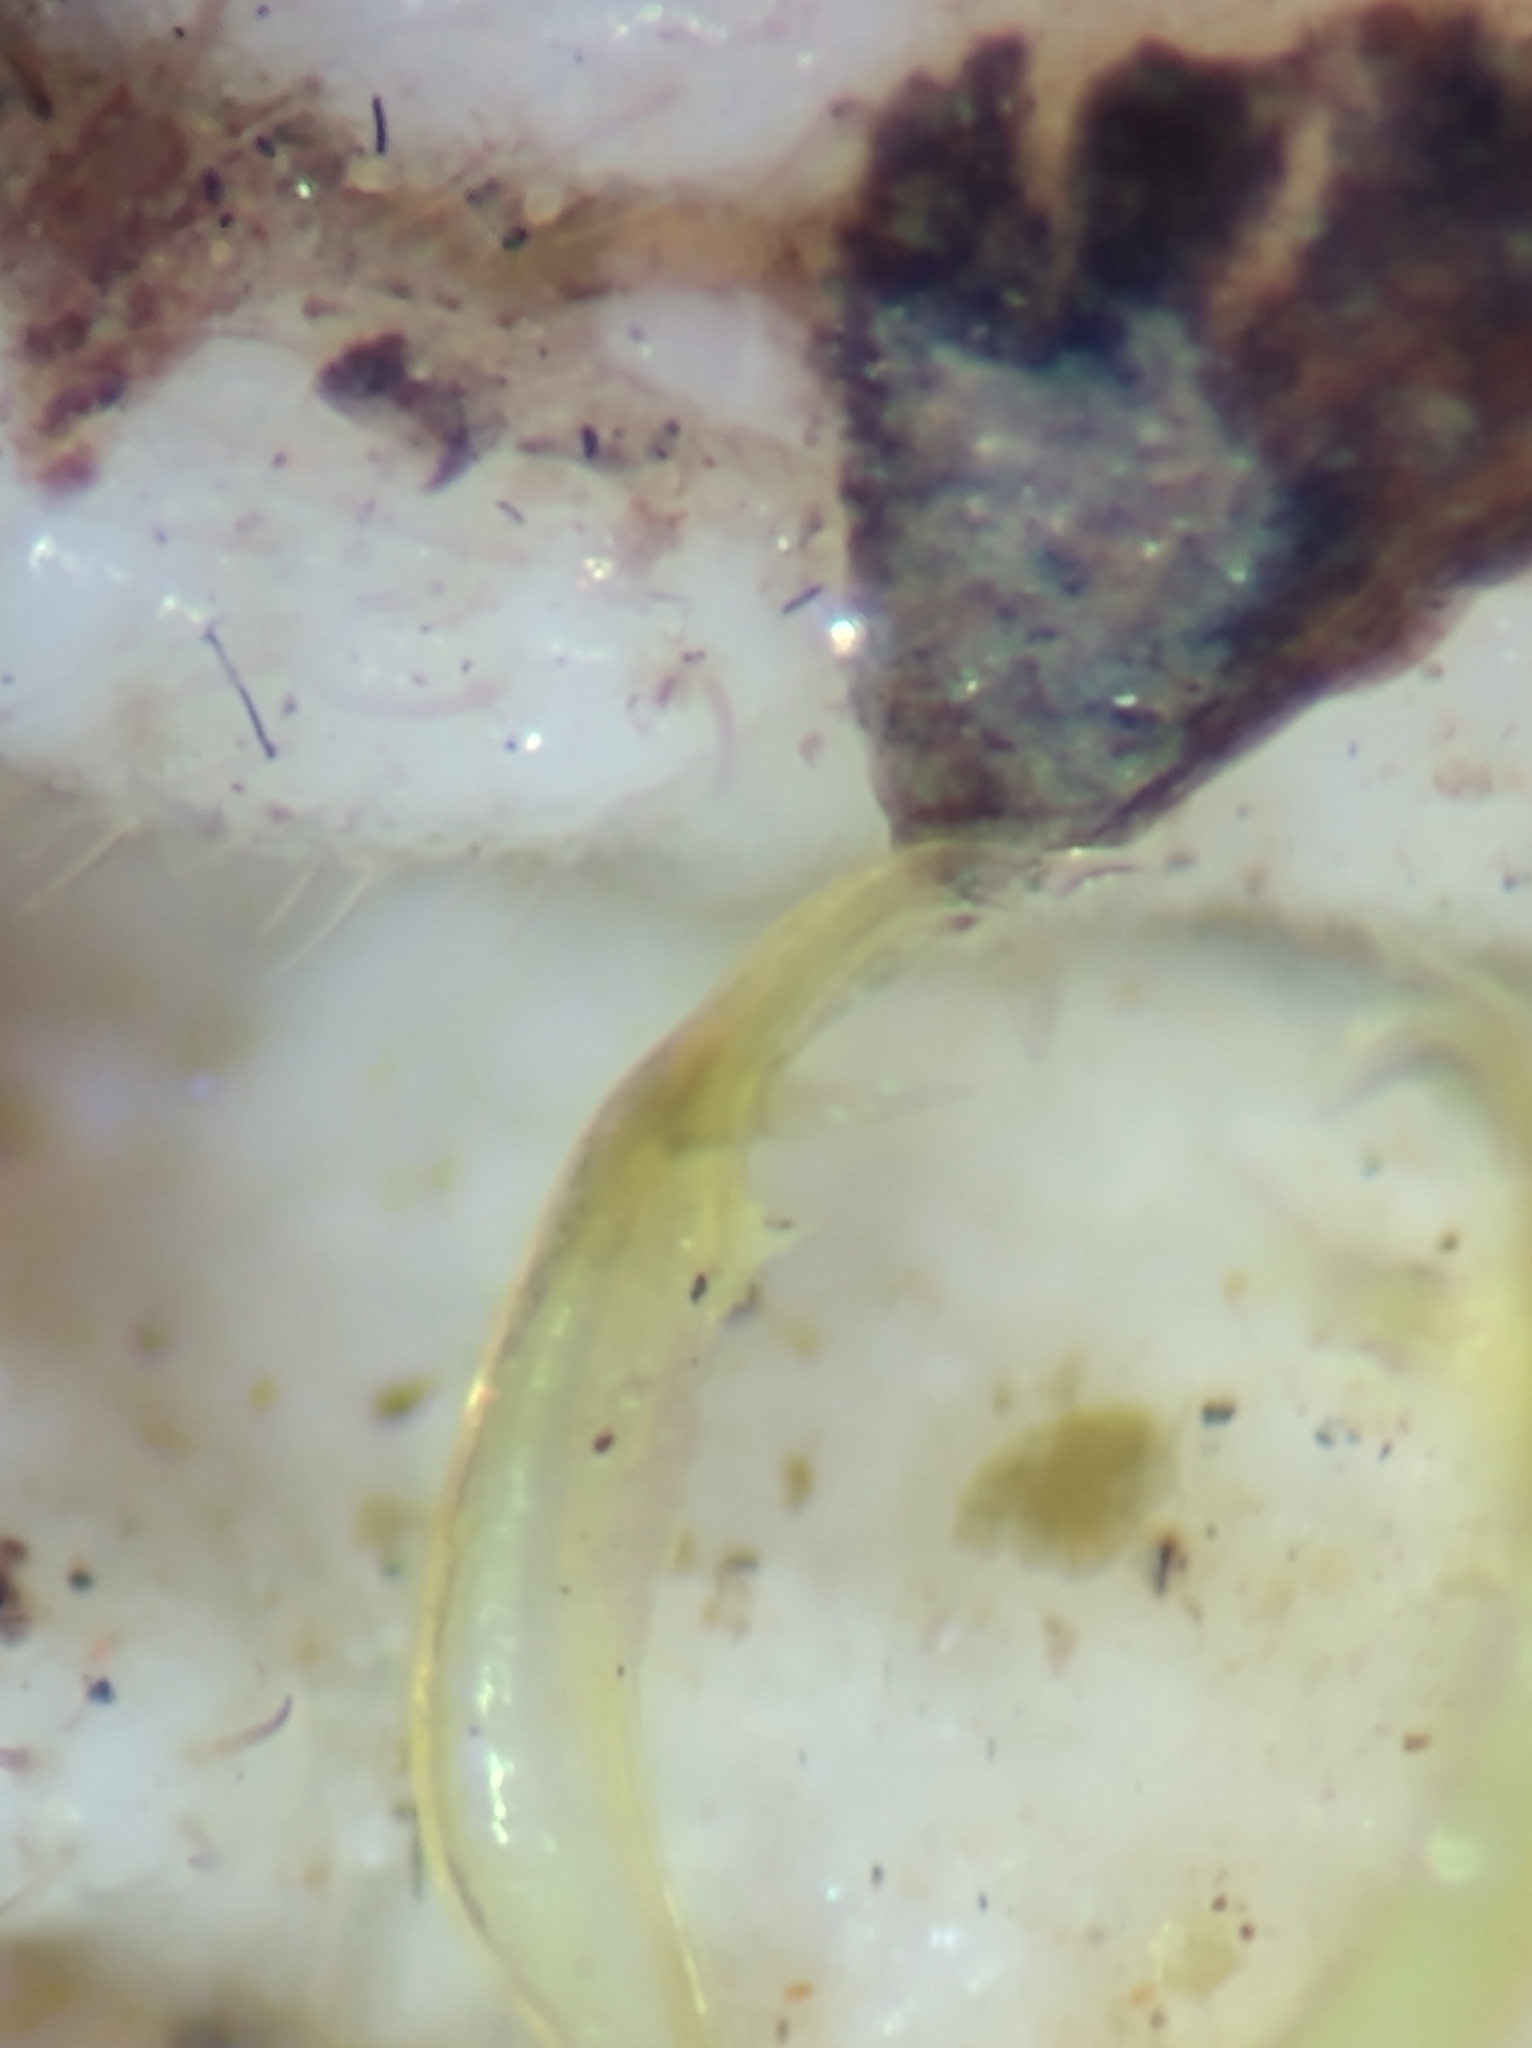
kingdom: Animalia
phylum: Arthropoda
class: Diplopoda
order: Polydesmida
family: Xystodesmidae
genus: Cherokia
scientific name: Cherokia georgiana
